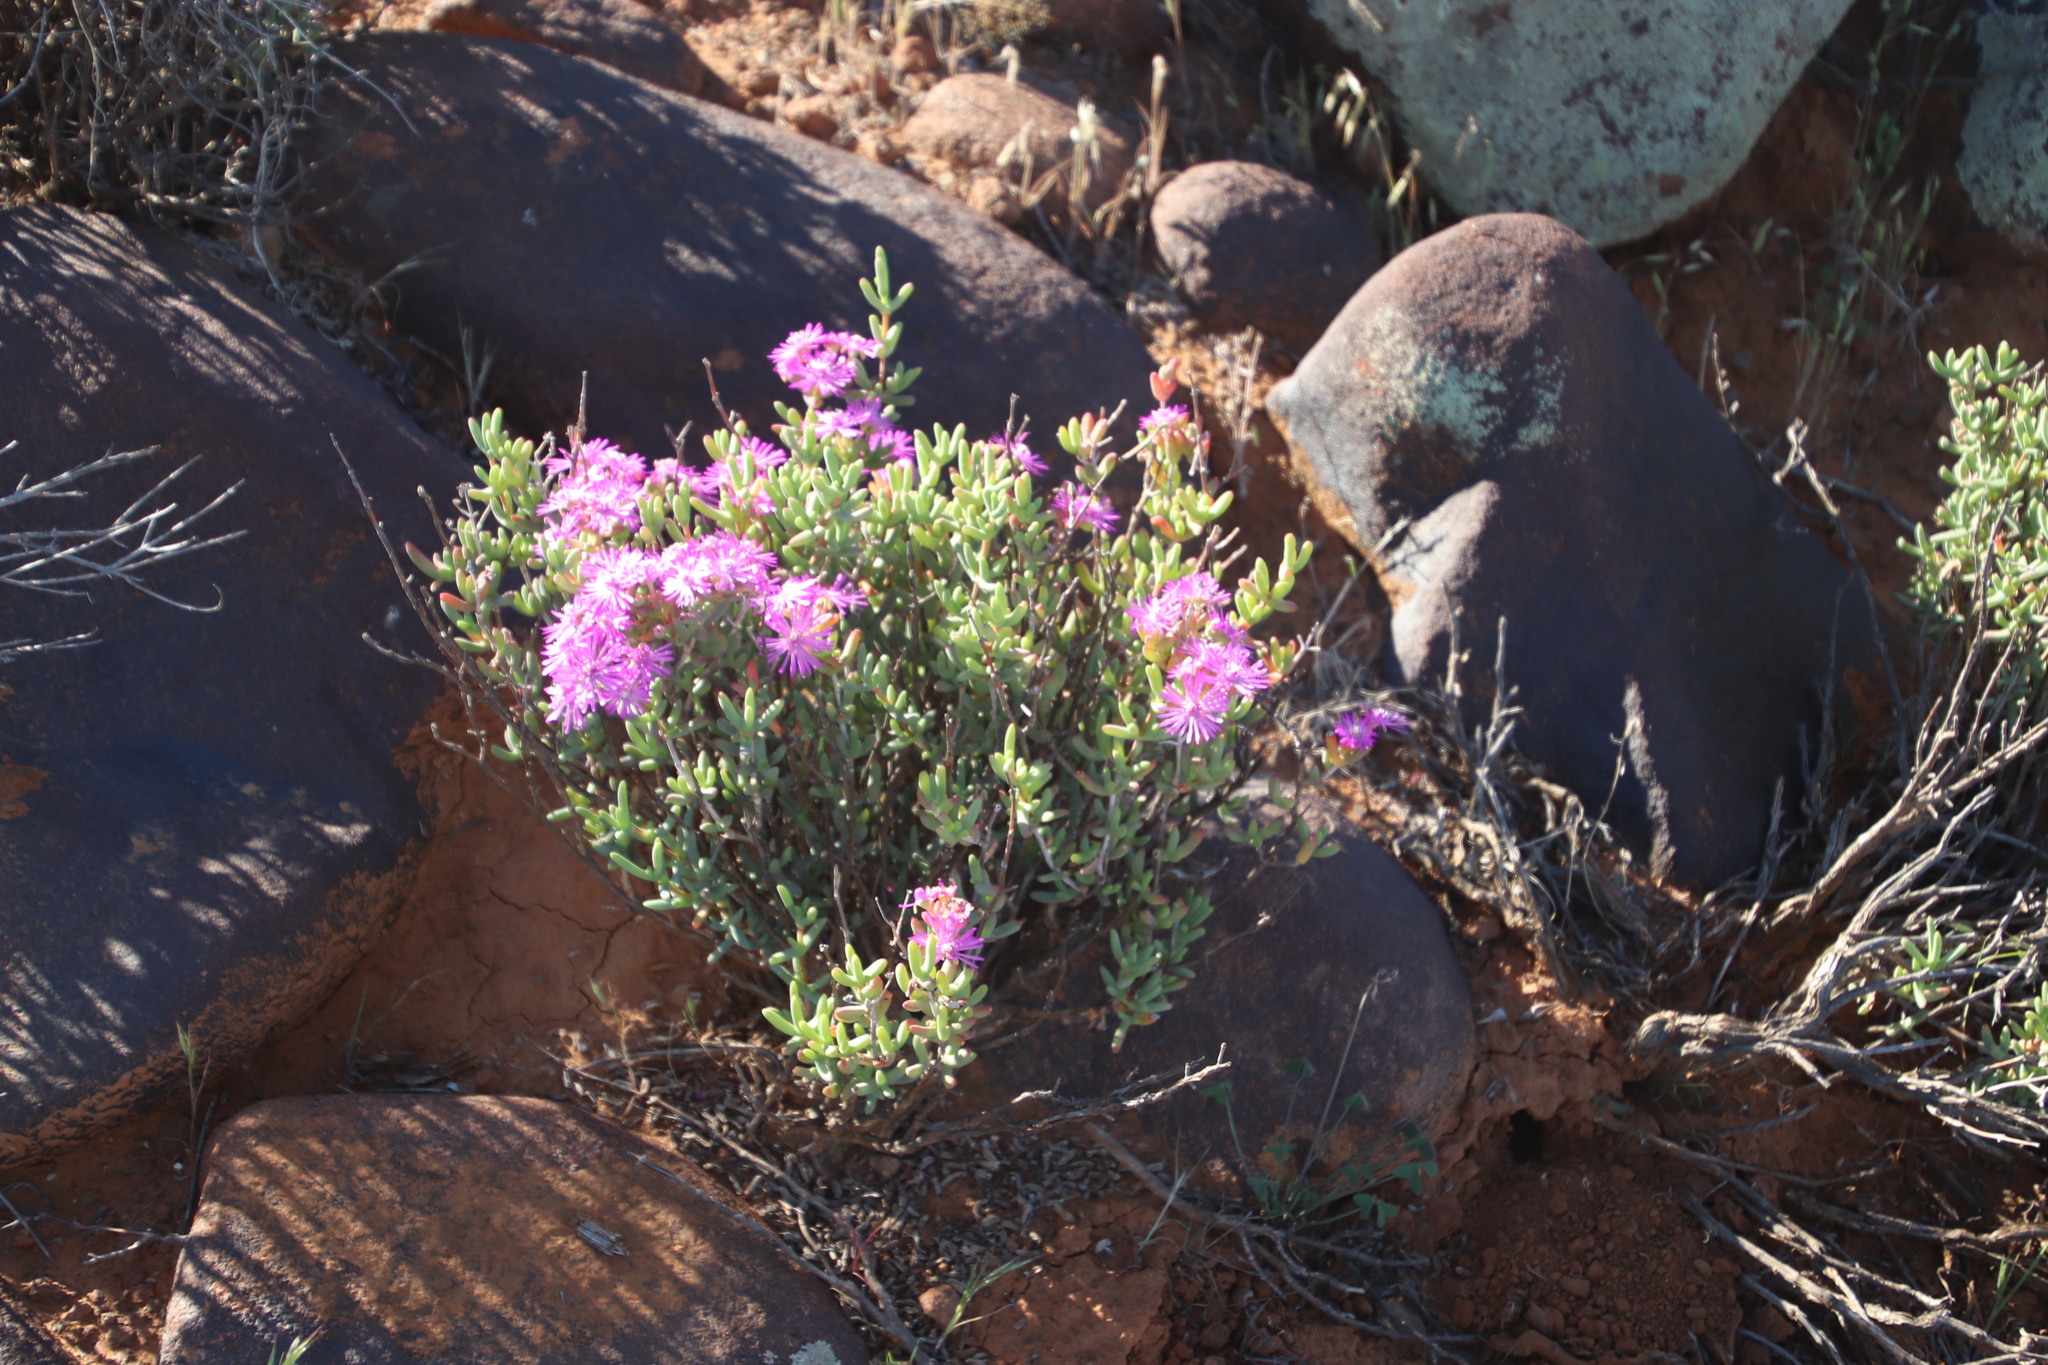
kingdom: Animalia
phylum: Arthropoda
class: Insecta
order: Lepidoptera
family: Nymphalidae
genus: Vanessa
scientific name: Vanessa cardui
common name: Painted lady
